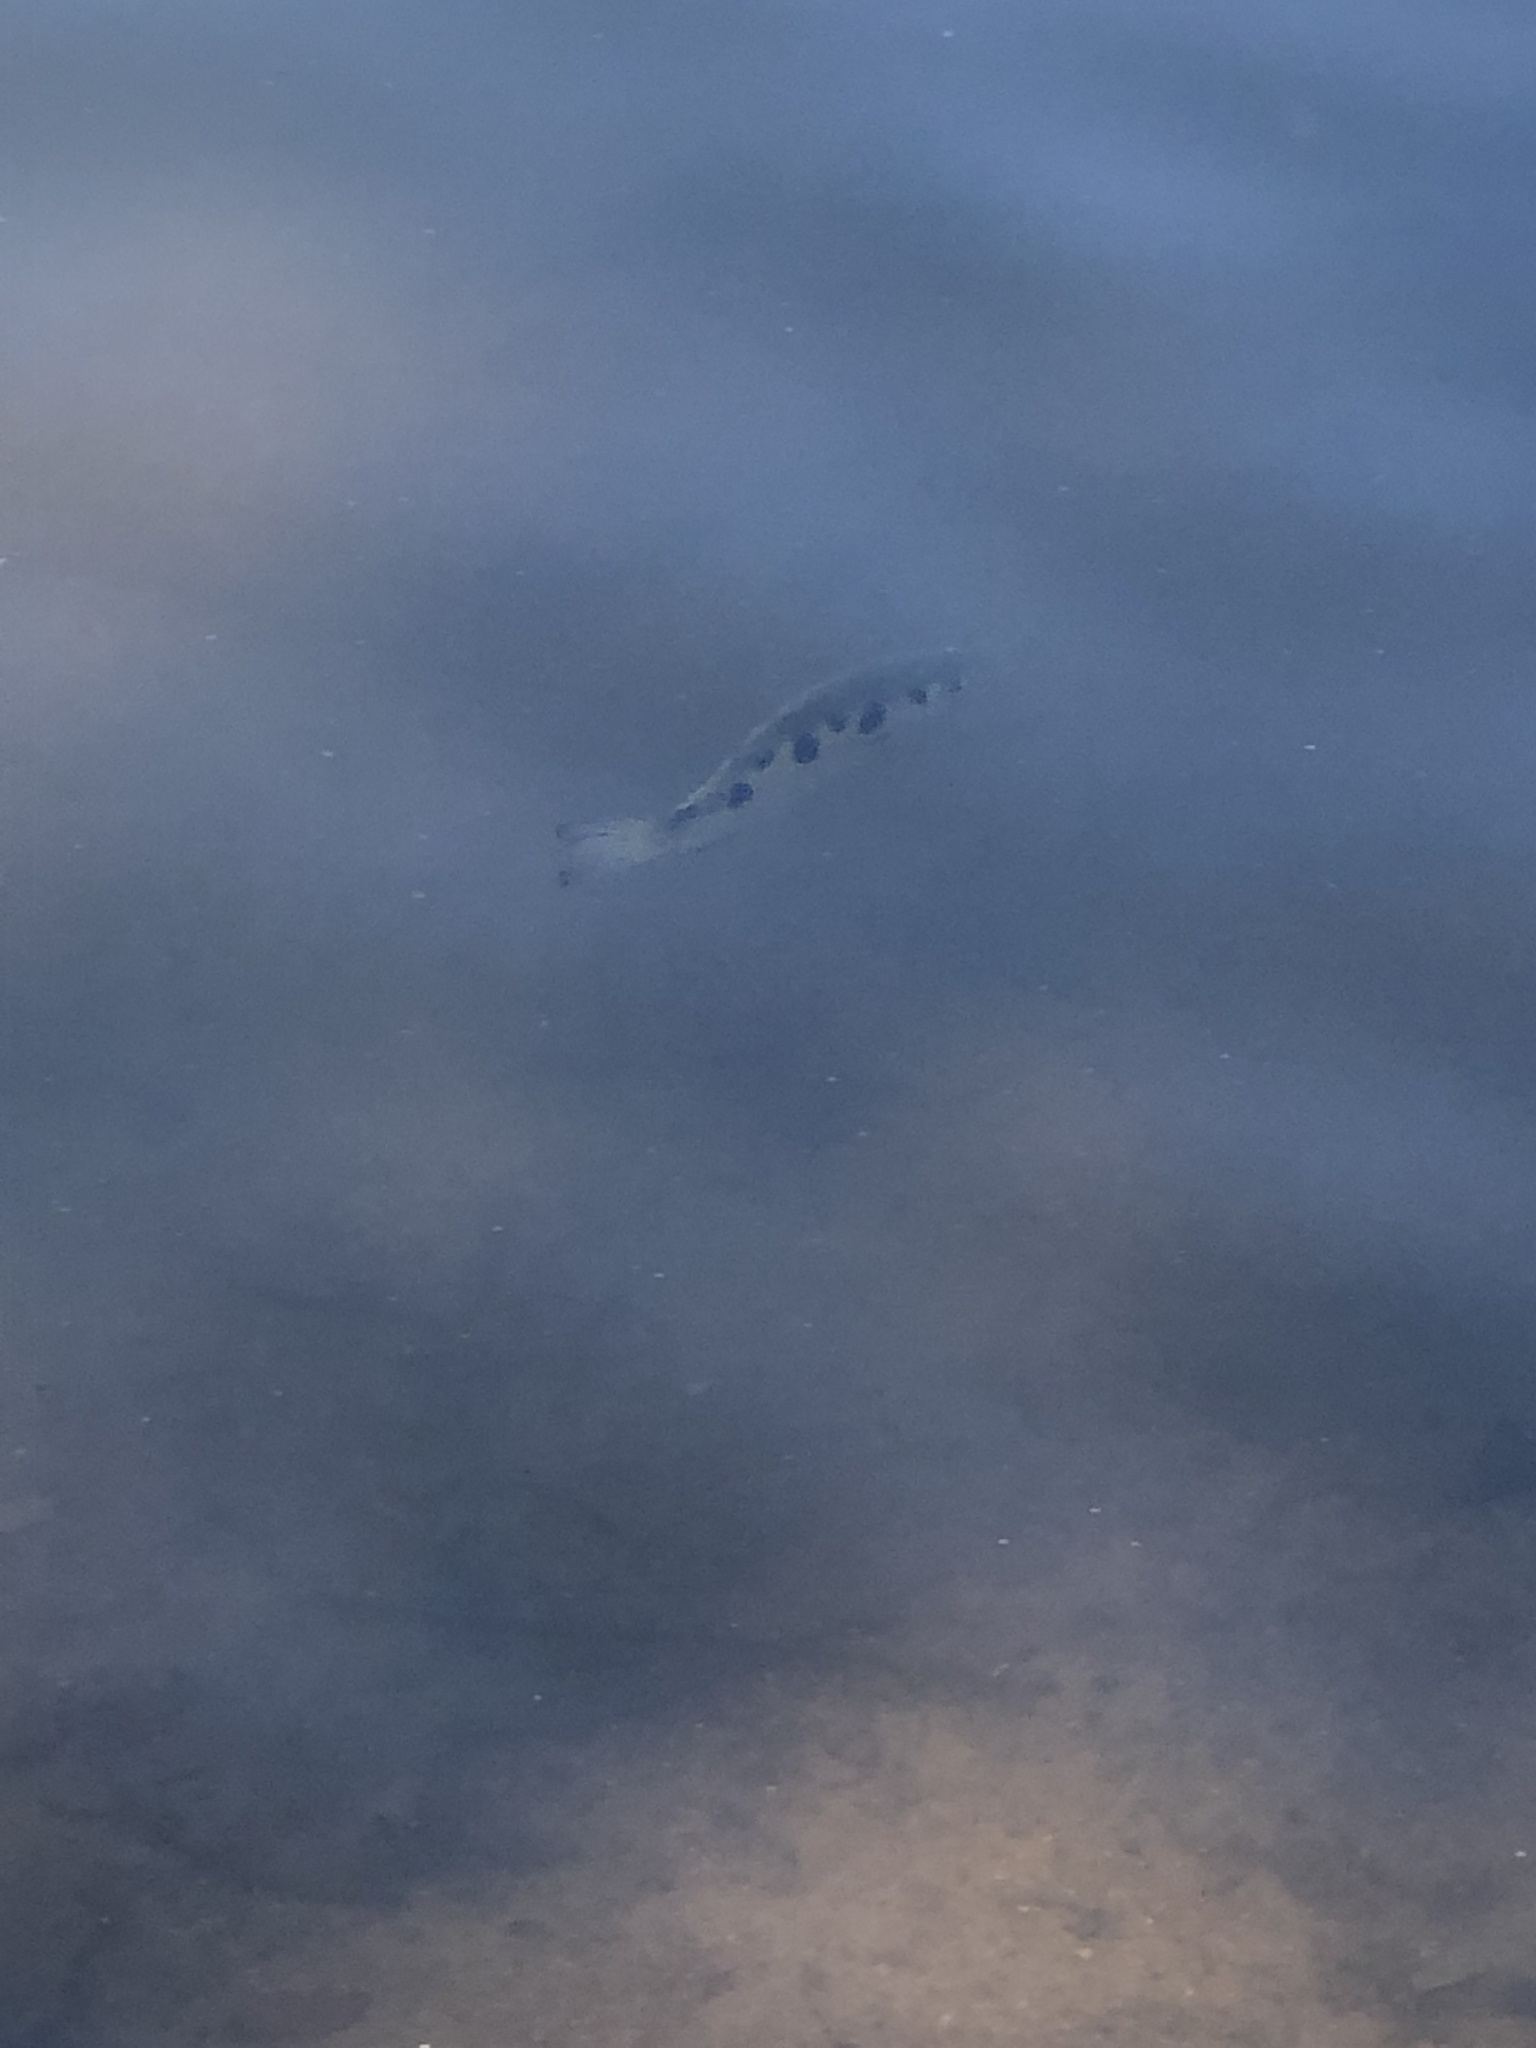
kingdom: Animalia
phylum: Chordata
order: Perciformes
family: Toxotidae
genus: Toxotes
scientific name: Toxotes chatareus
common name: Spotted archerfish
